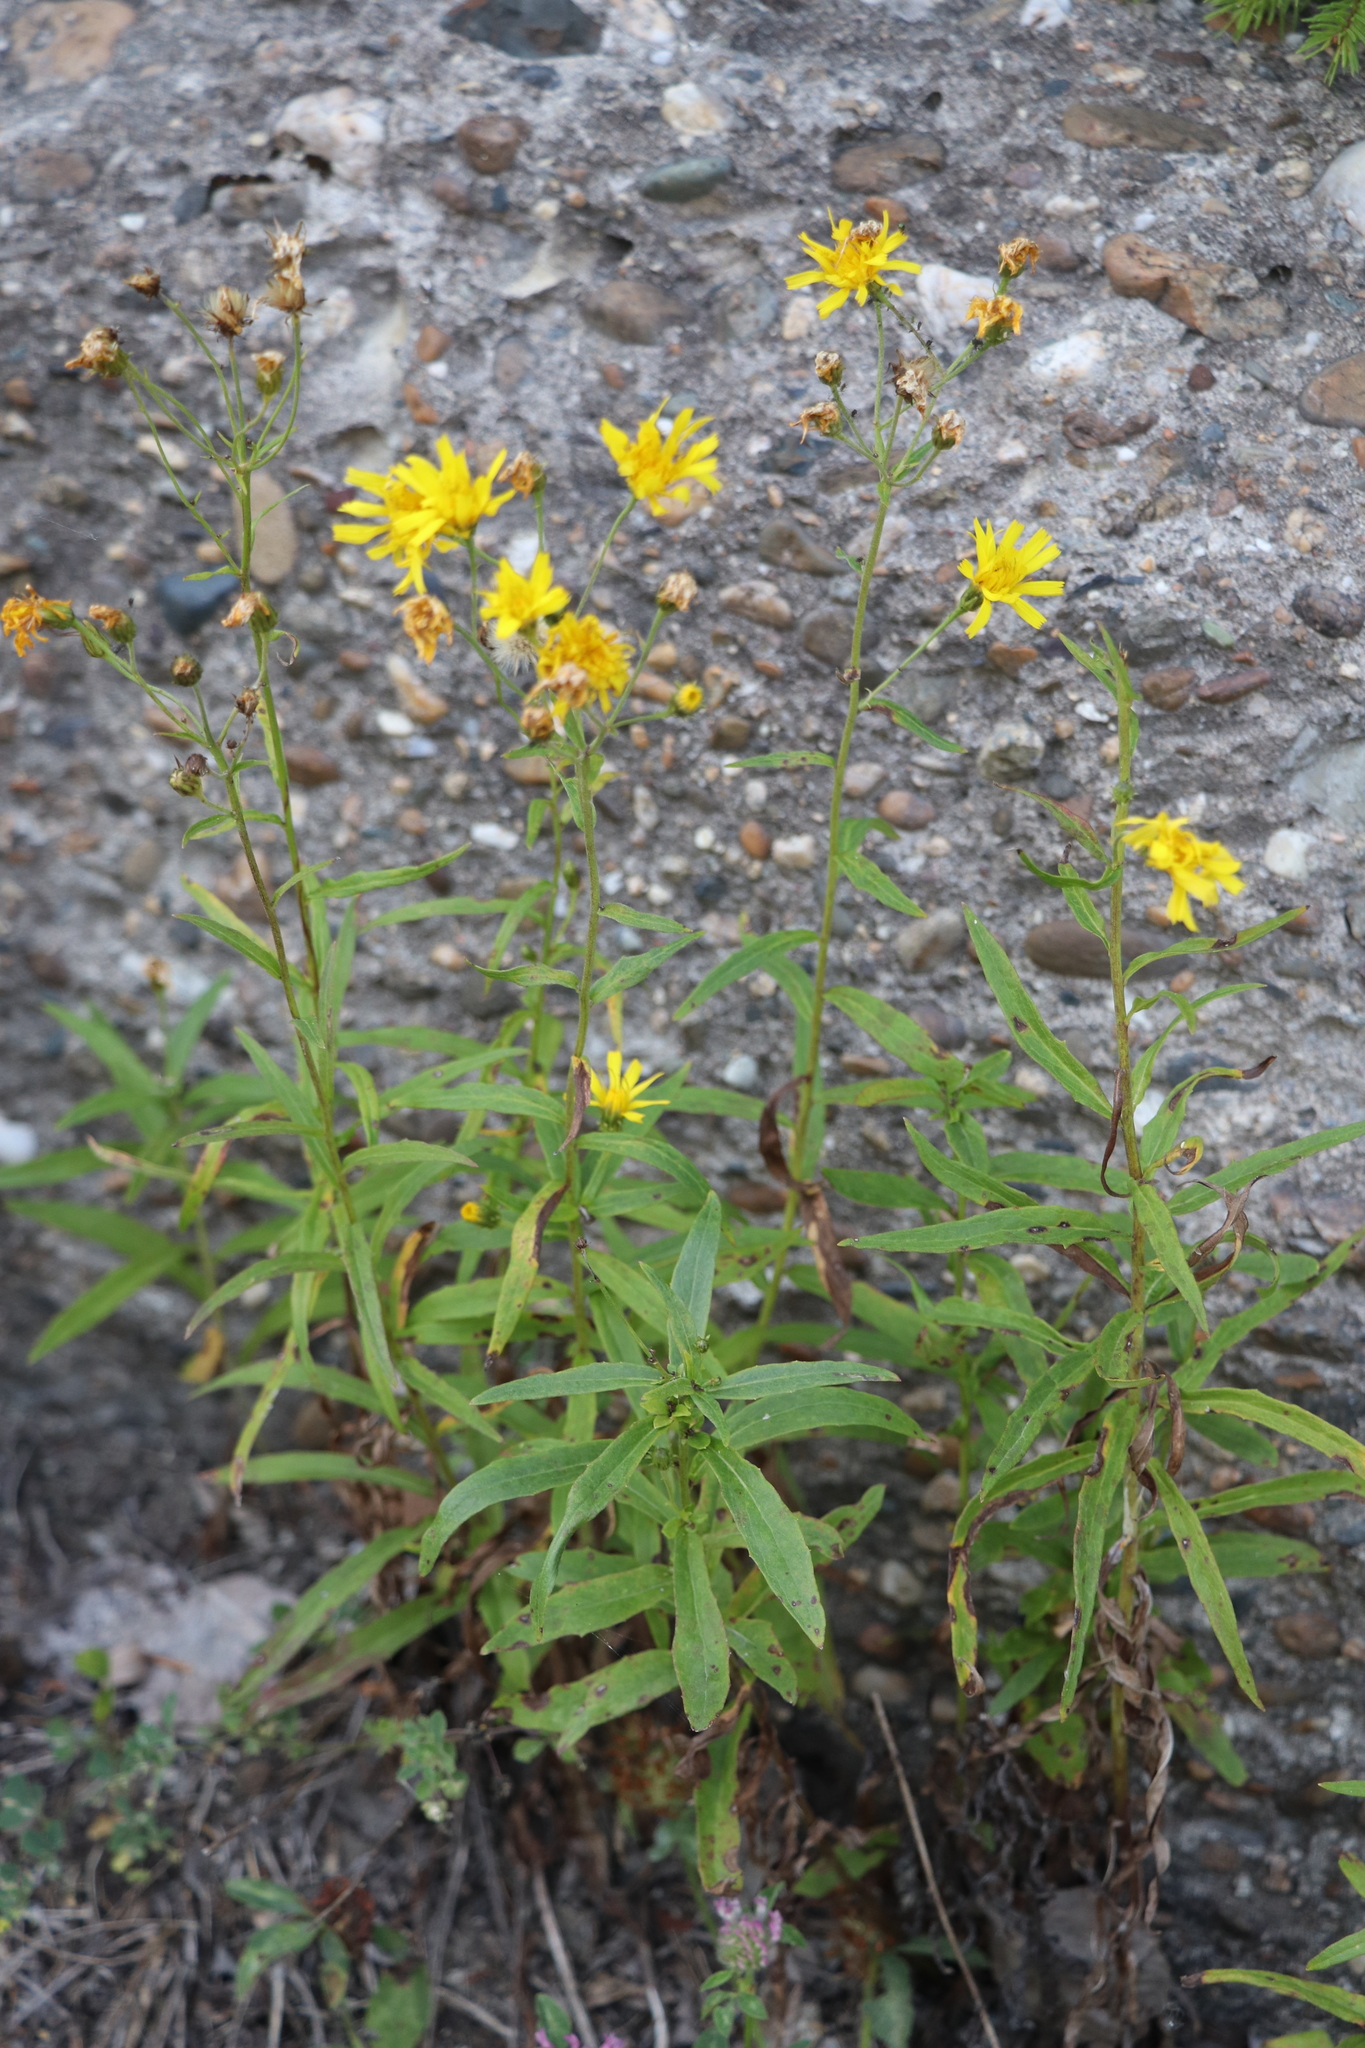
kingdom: Plantae
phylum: Tracheophyta
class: Magnoliopsida
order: Asterales
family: Asteraceae
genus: Hieracium
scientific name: Hieracium umbellatum
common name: Northern hawkweed
